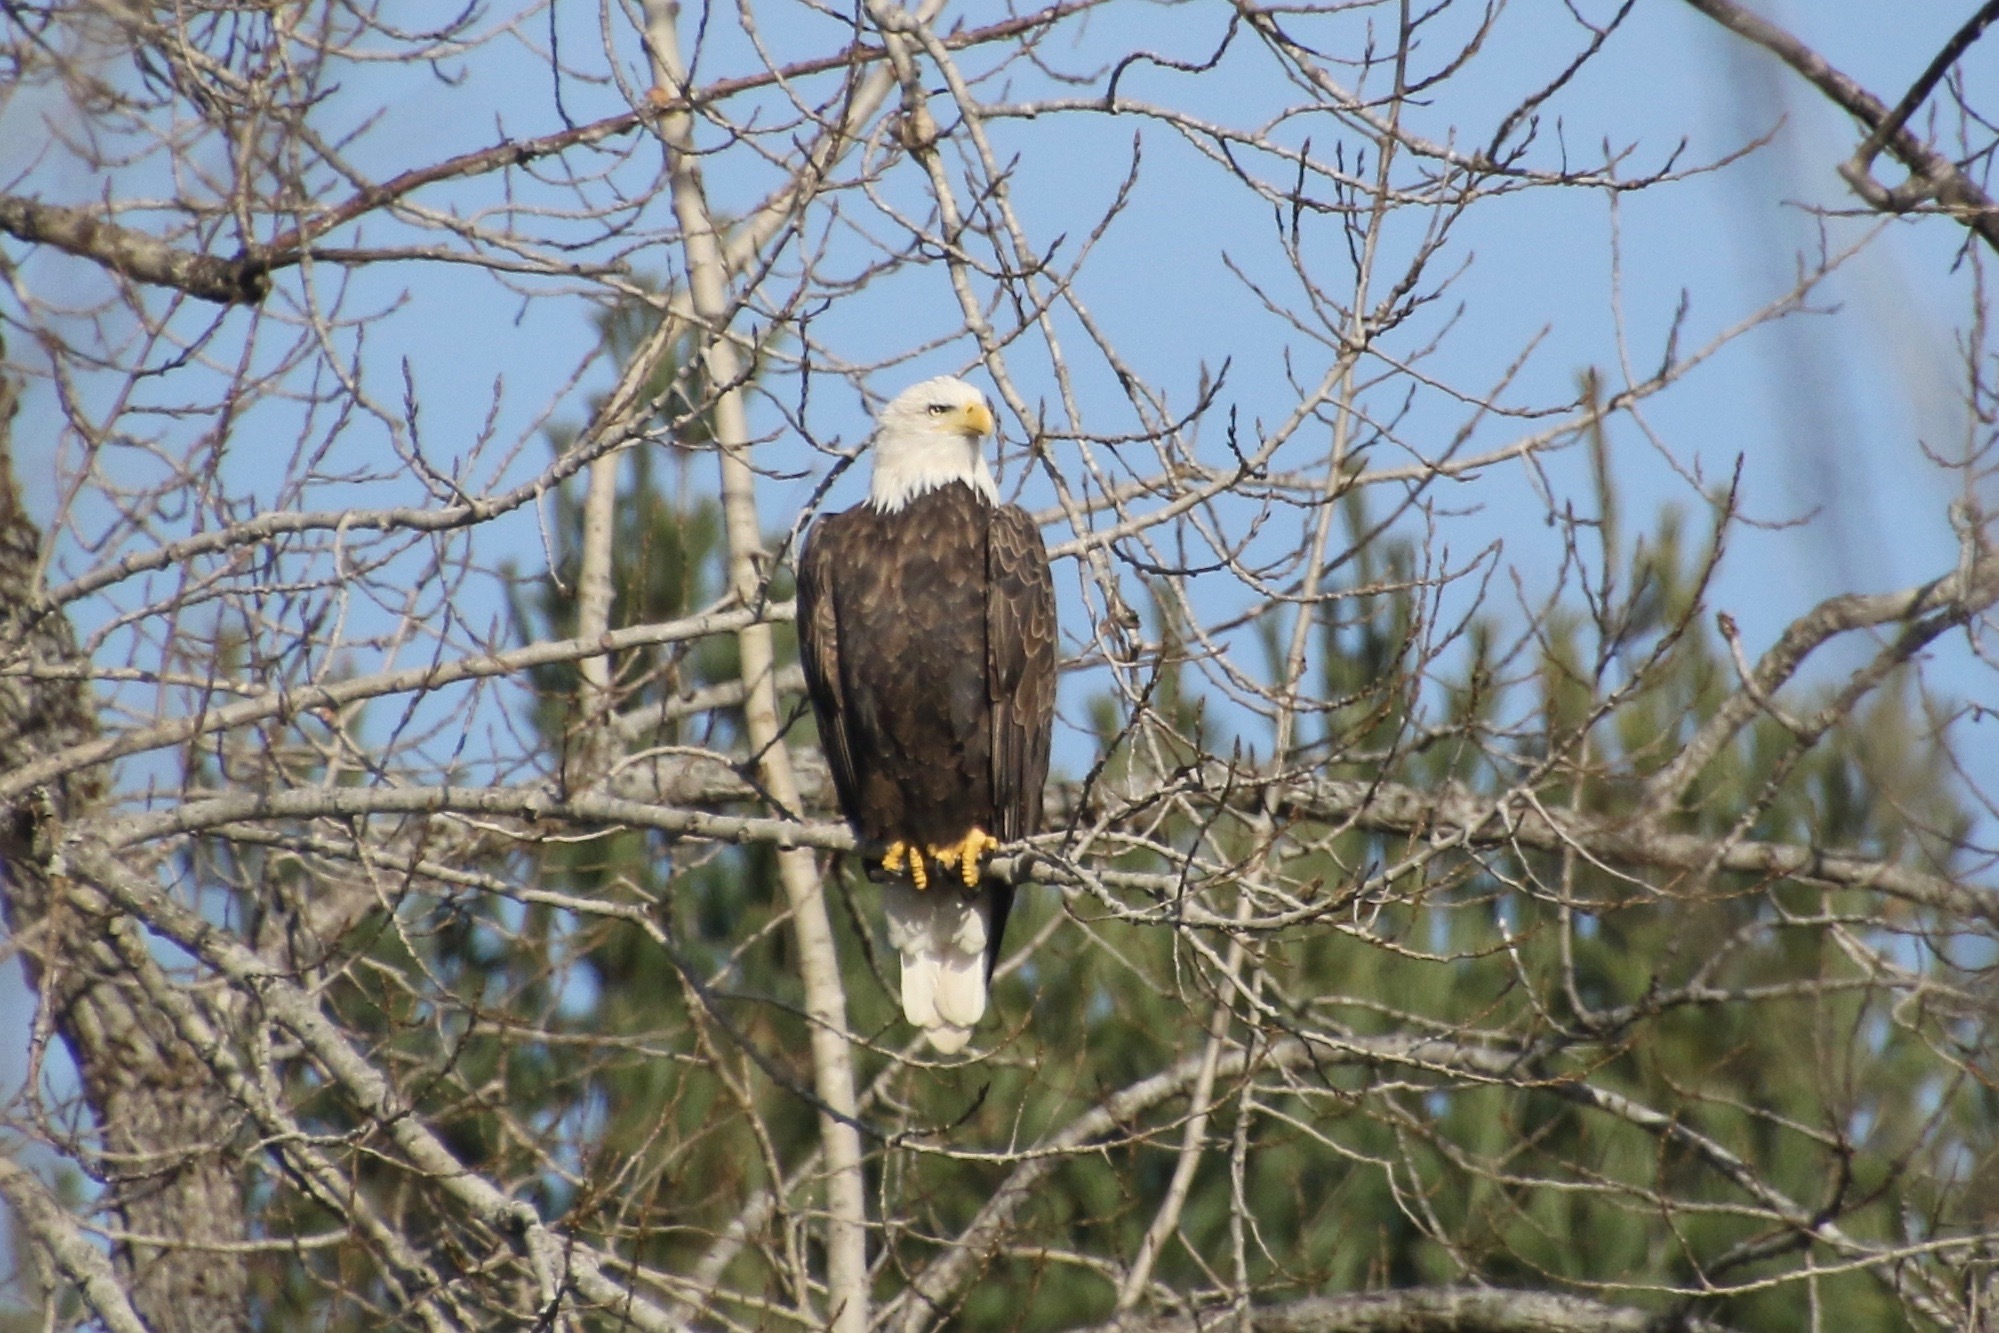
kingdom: Animalia
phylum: Chordata
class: Aves
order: Accipitriformes
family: Accipitridae
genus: Haliaeetus
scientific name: Haliaeetus leucocephalus
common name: Bald eagle
